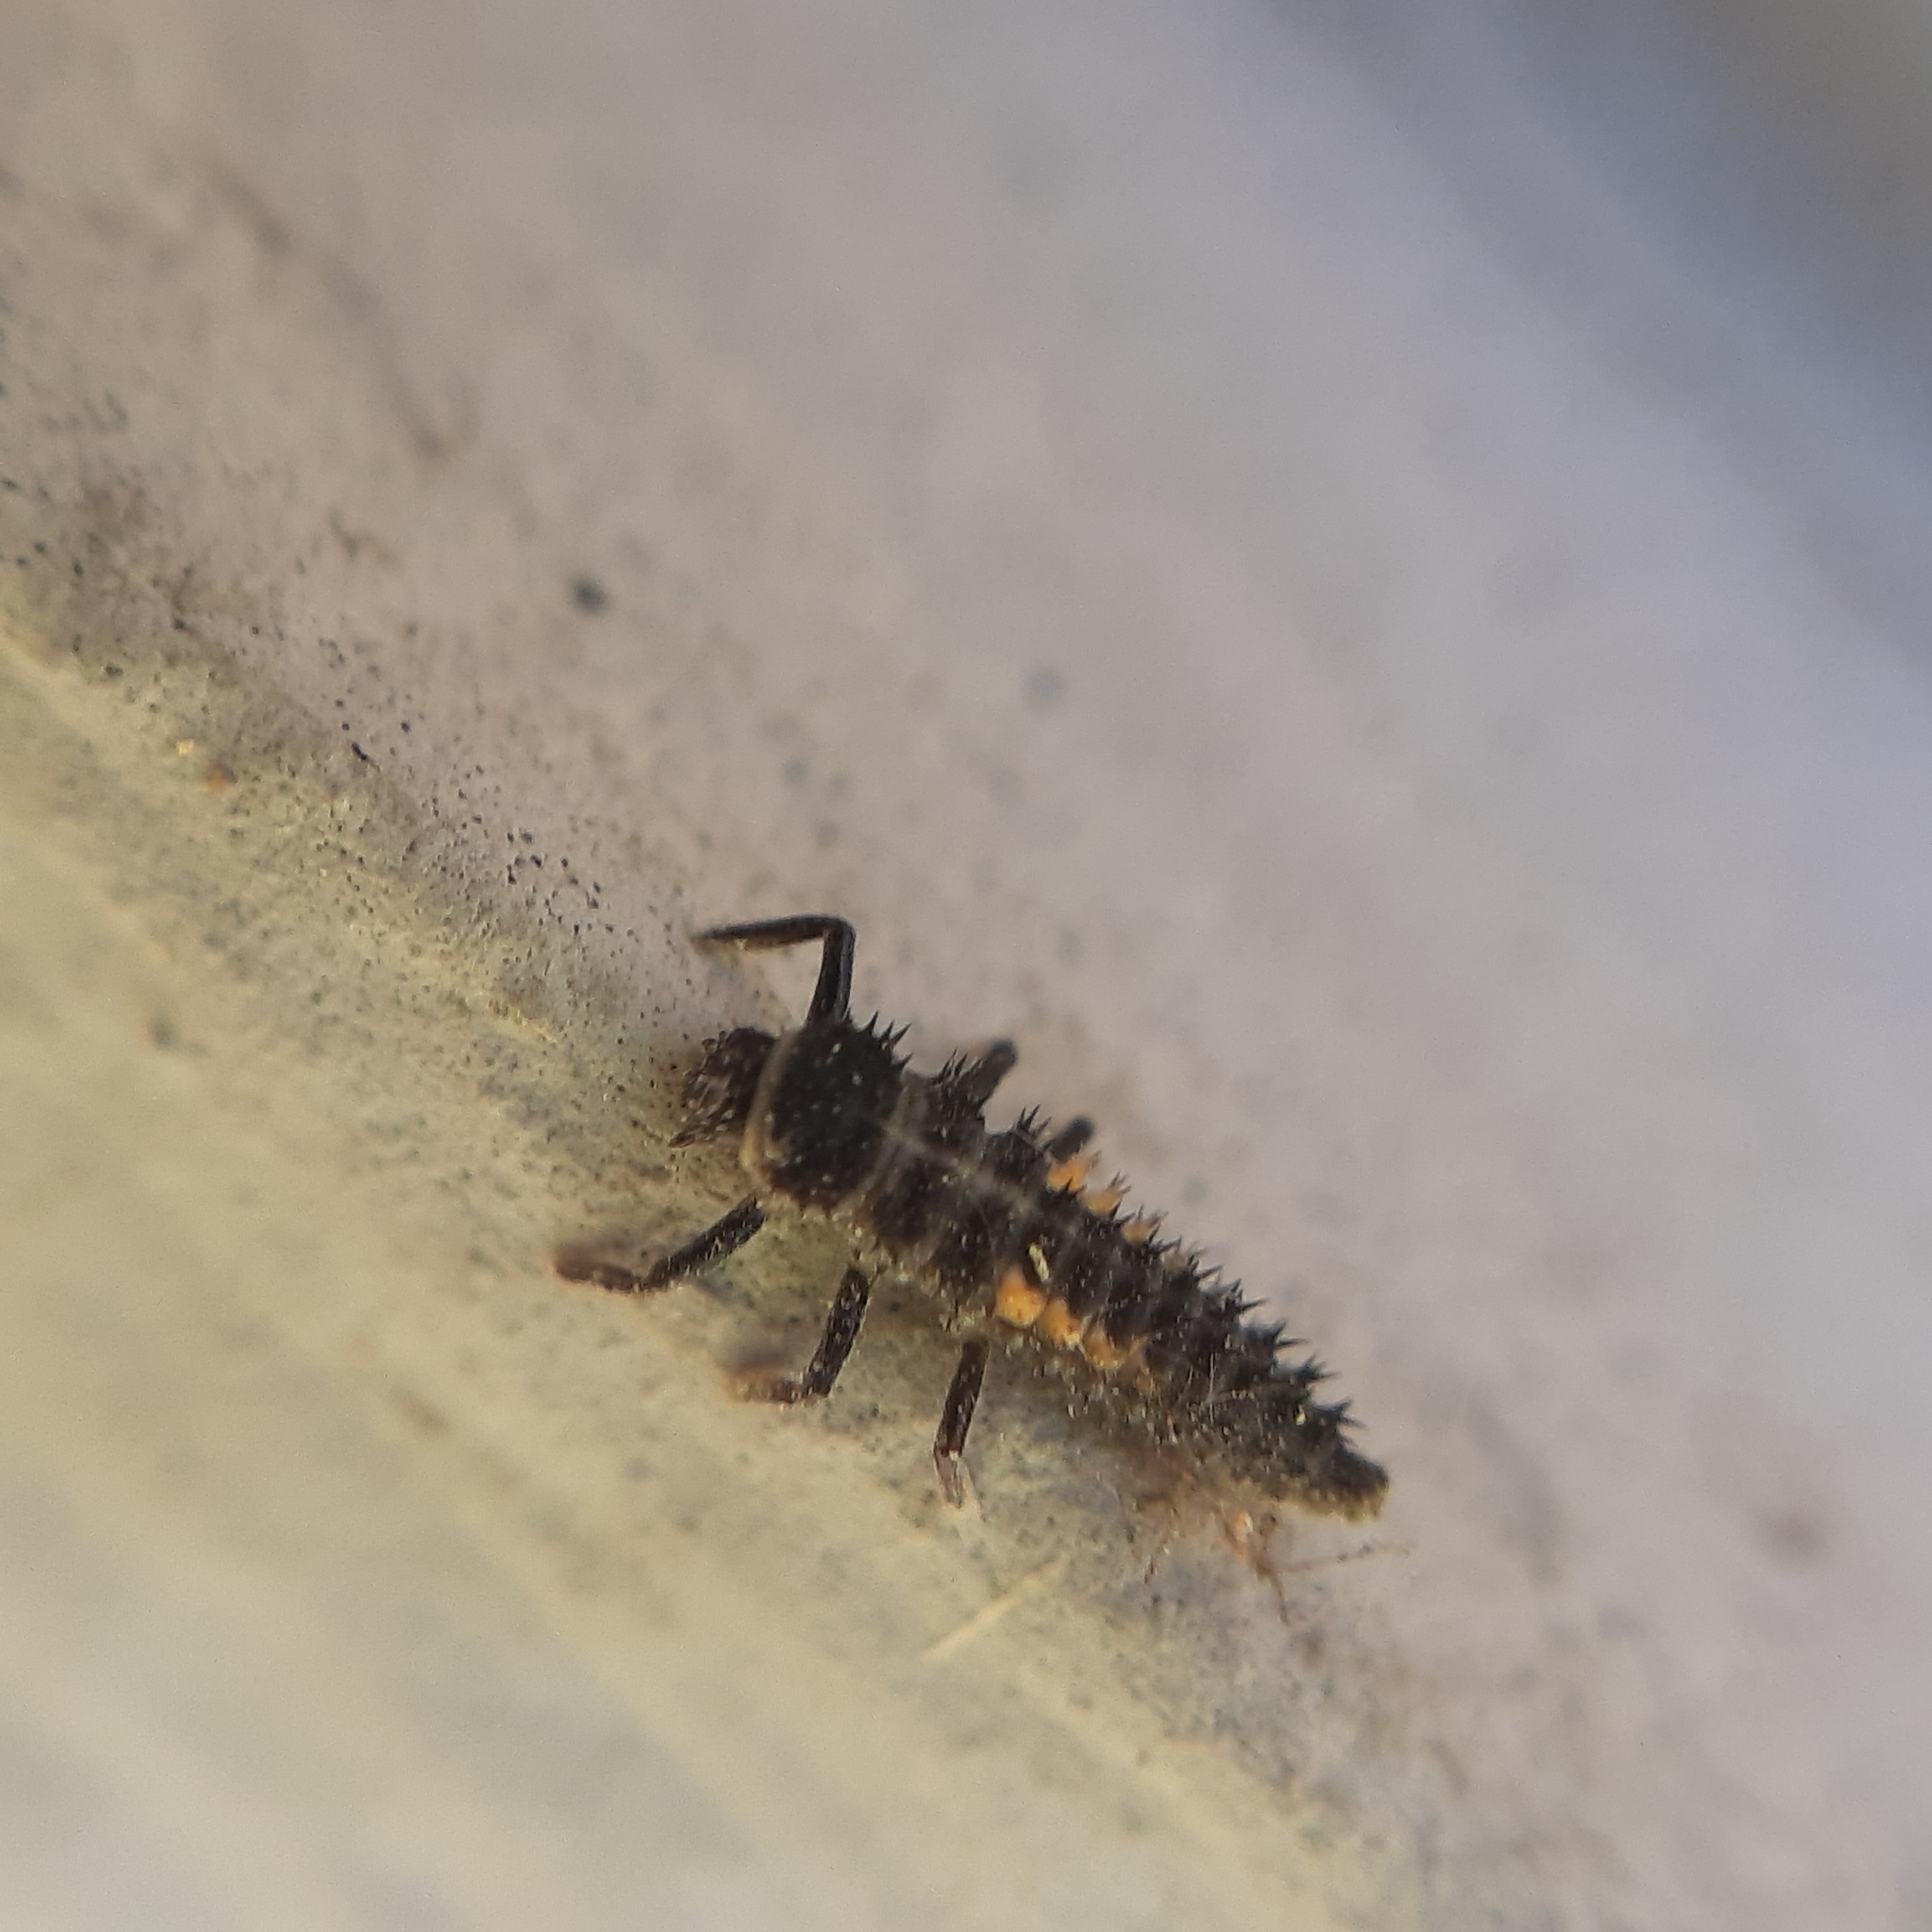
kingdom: Animalia
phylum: Arthropoda
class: Insecta
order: Coleoptera
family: Coccinellidae
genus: Harmonia
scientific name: Harmonia axyridis
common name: Harlequin ladybird
